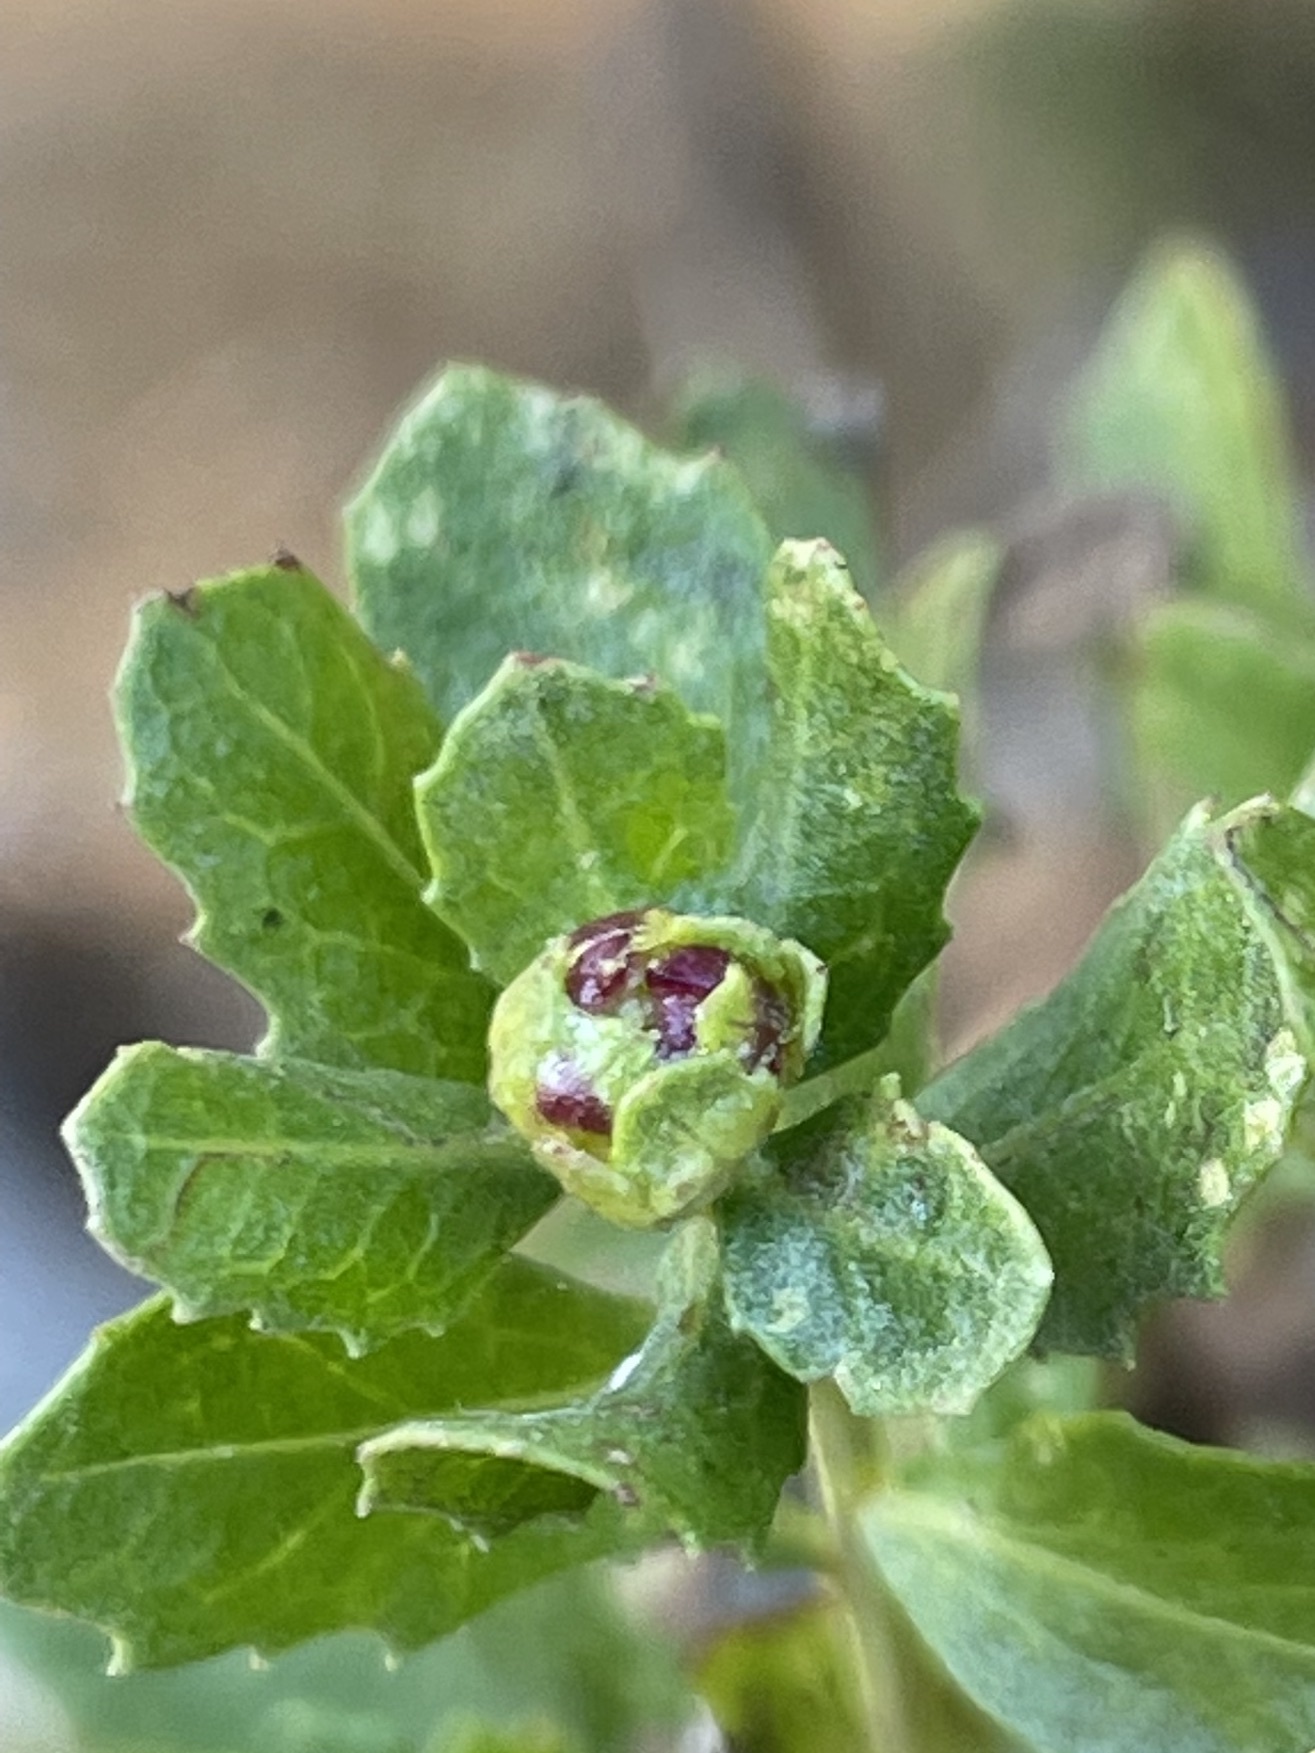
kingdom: Animalia
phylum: Arthropoda
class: Insecta
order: Diptera
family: Cecidomyiidae
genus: Rhopalomyia
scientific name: Rhopalomyia californica
